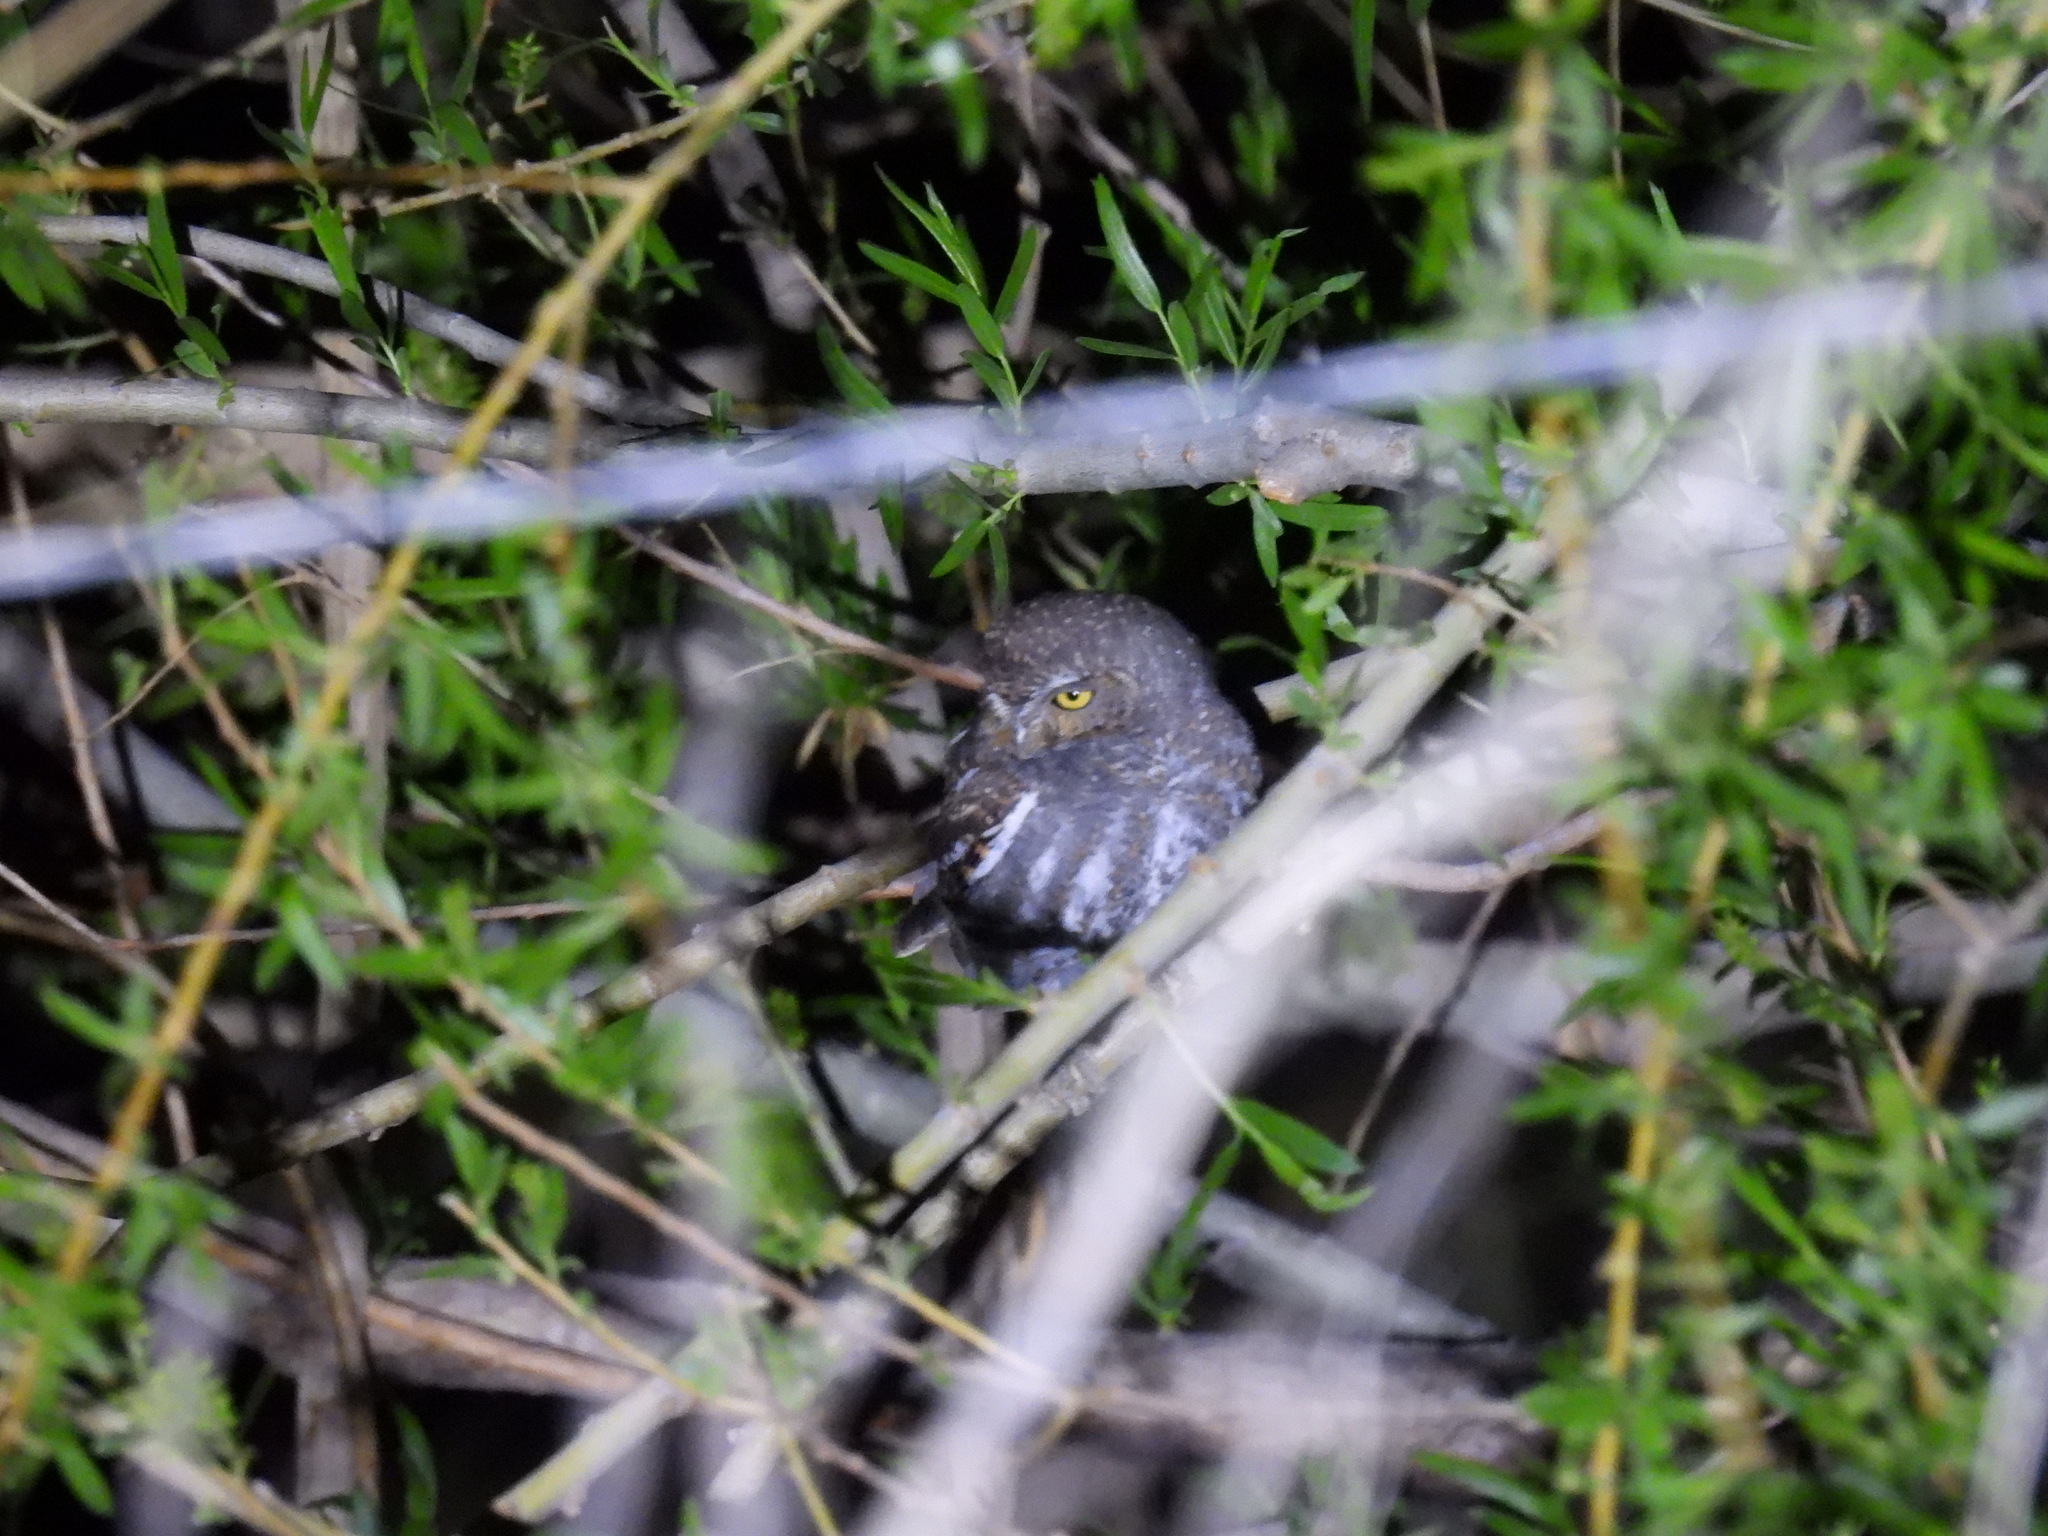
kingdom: Animalia
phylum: Chordata
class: Aves
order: Strigiformes
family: Strigidae
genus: Micrathene
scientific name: Micrathene whitneyi
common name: Elf owl
